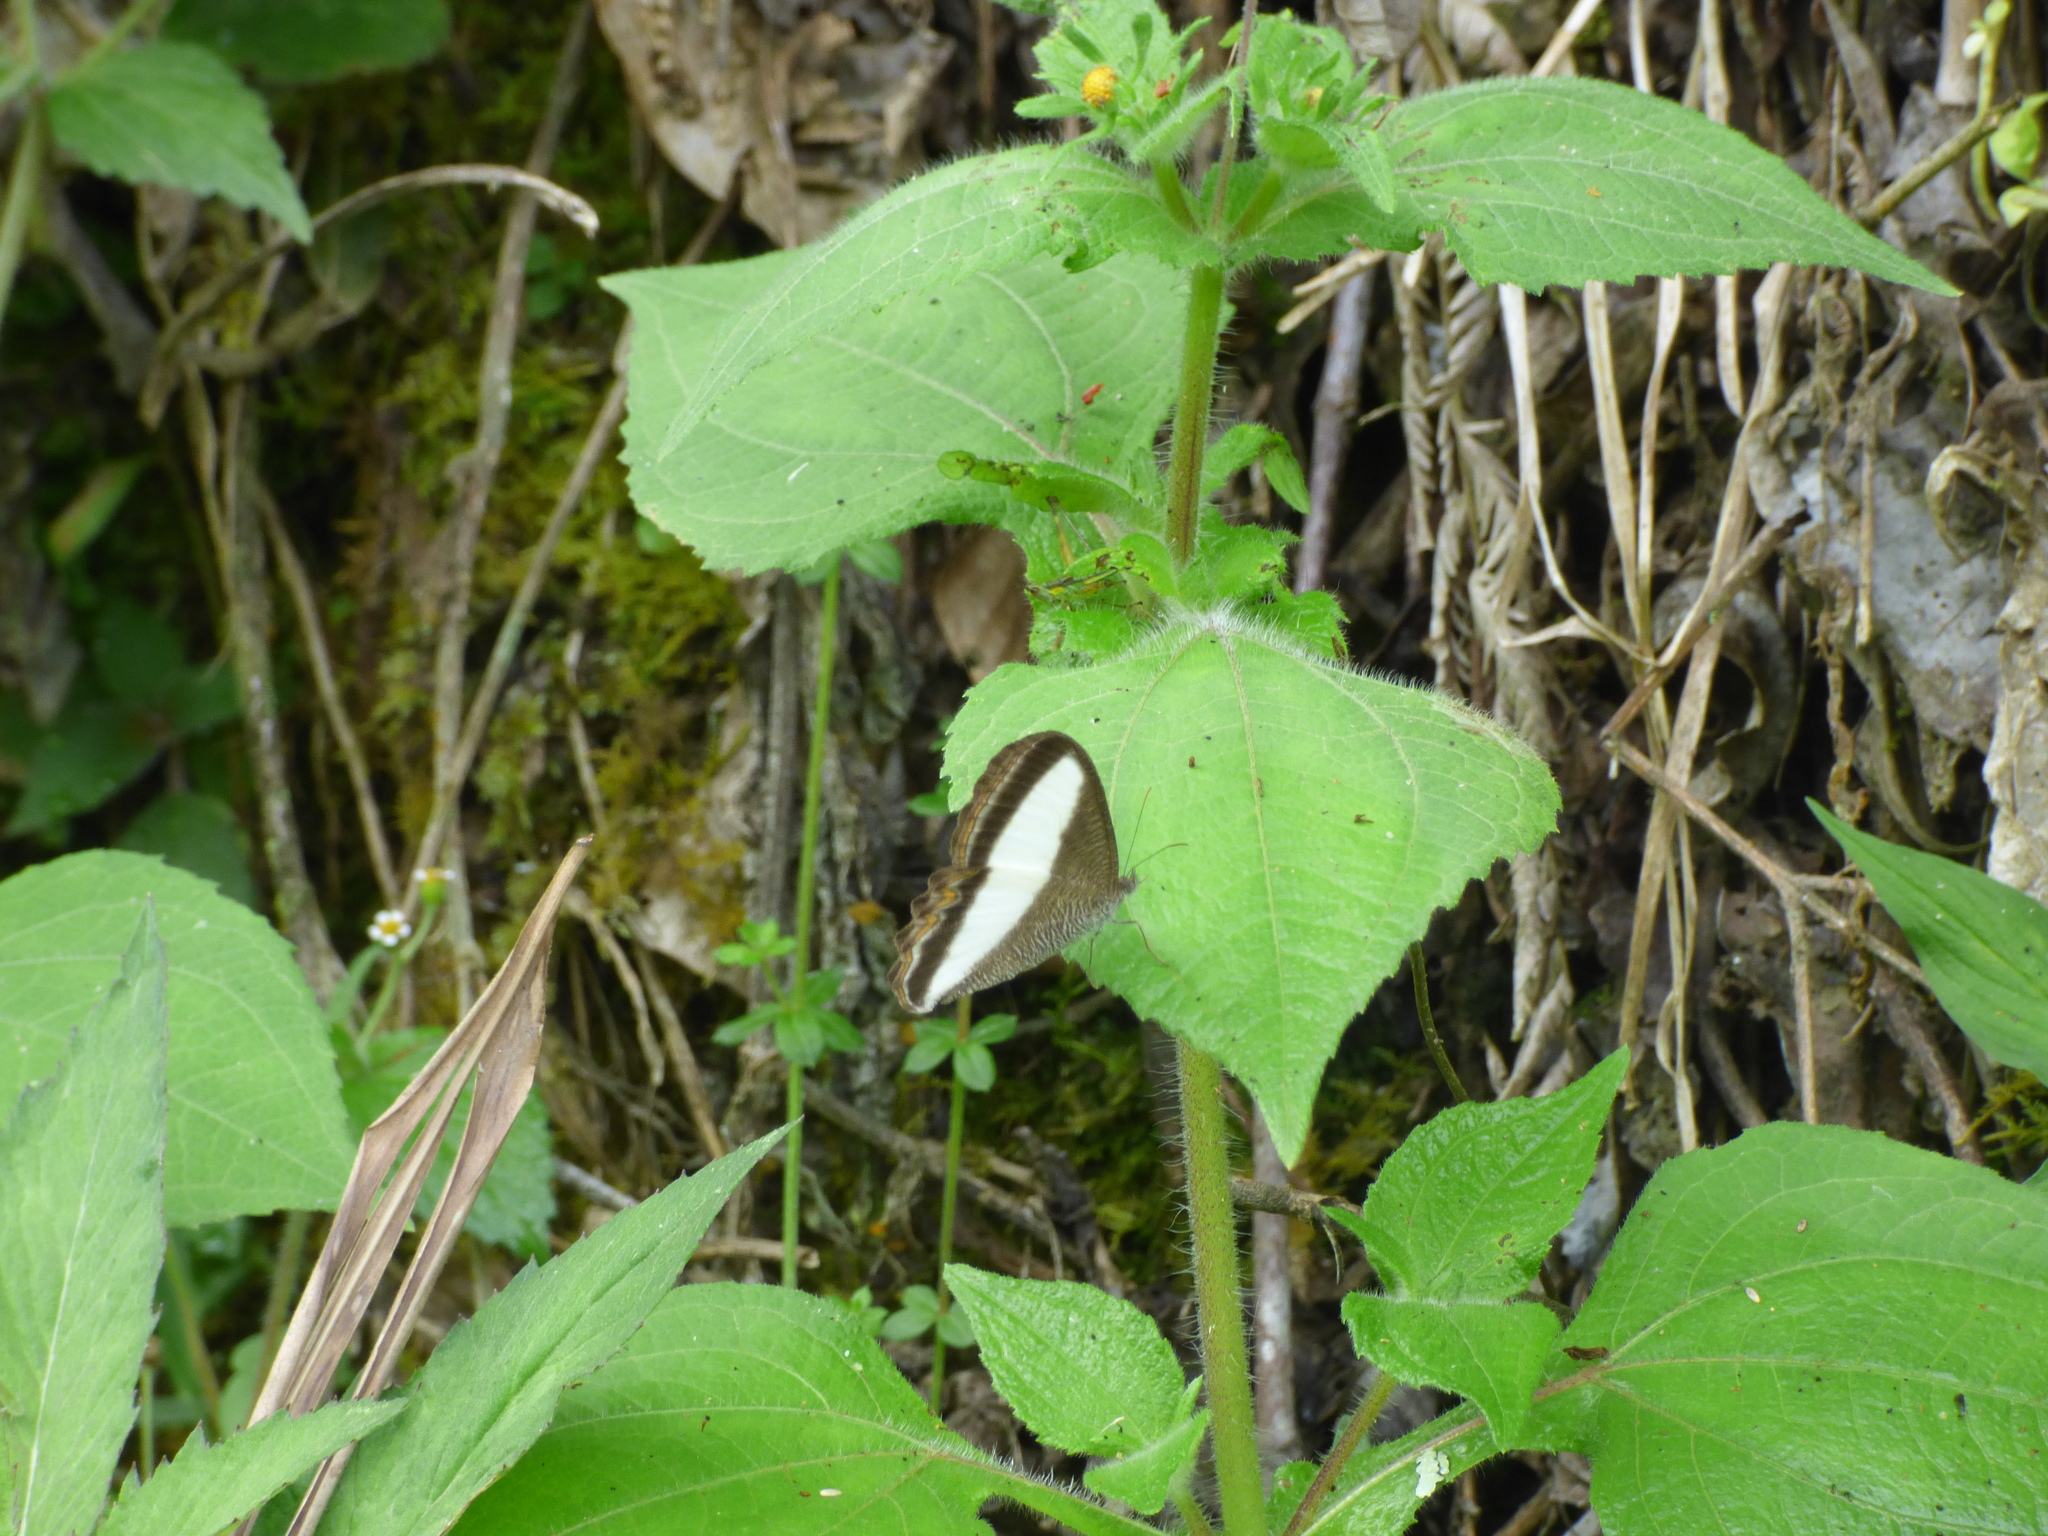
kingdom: Animalia
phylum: Arthropoda
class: Insecta
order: Lepidoptera
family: Nymphalidae
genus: Oressinoma
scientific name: Oressinoma typhla
